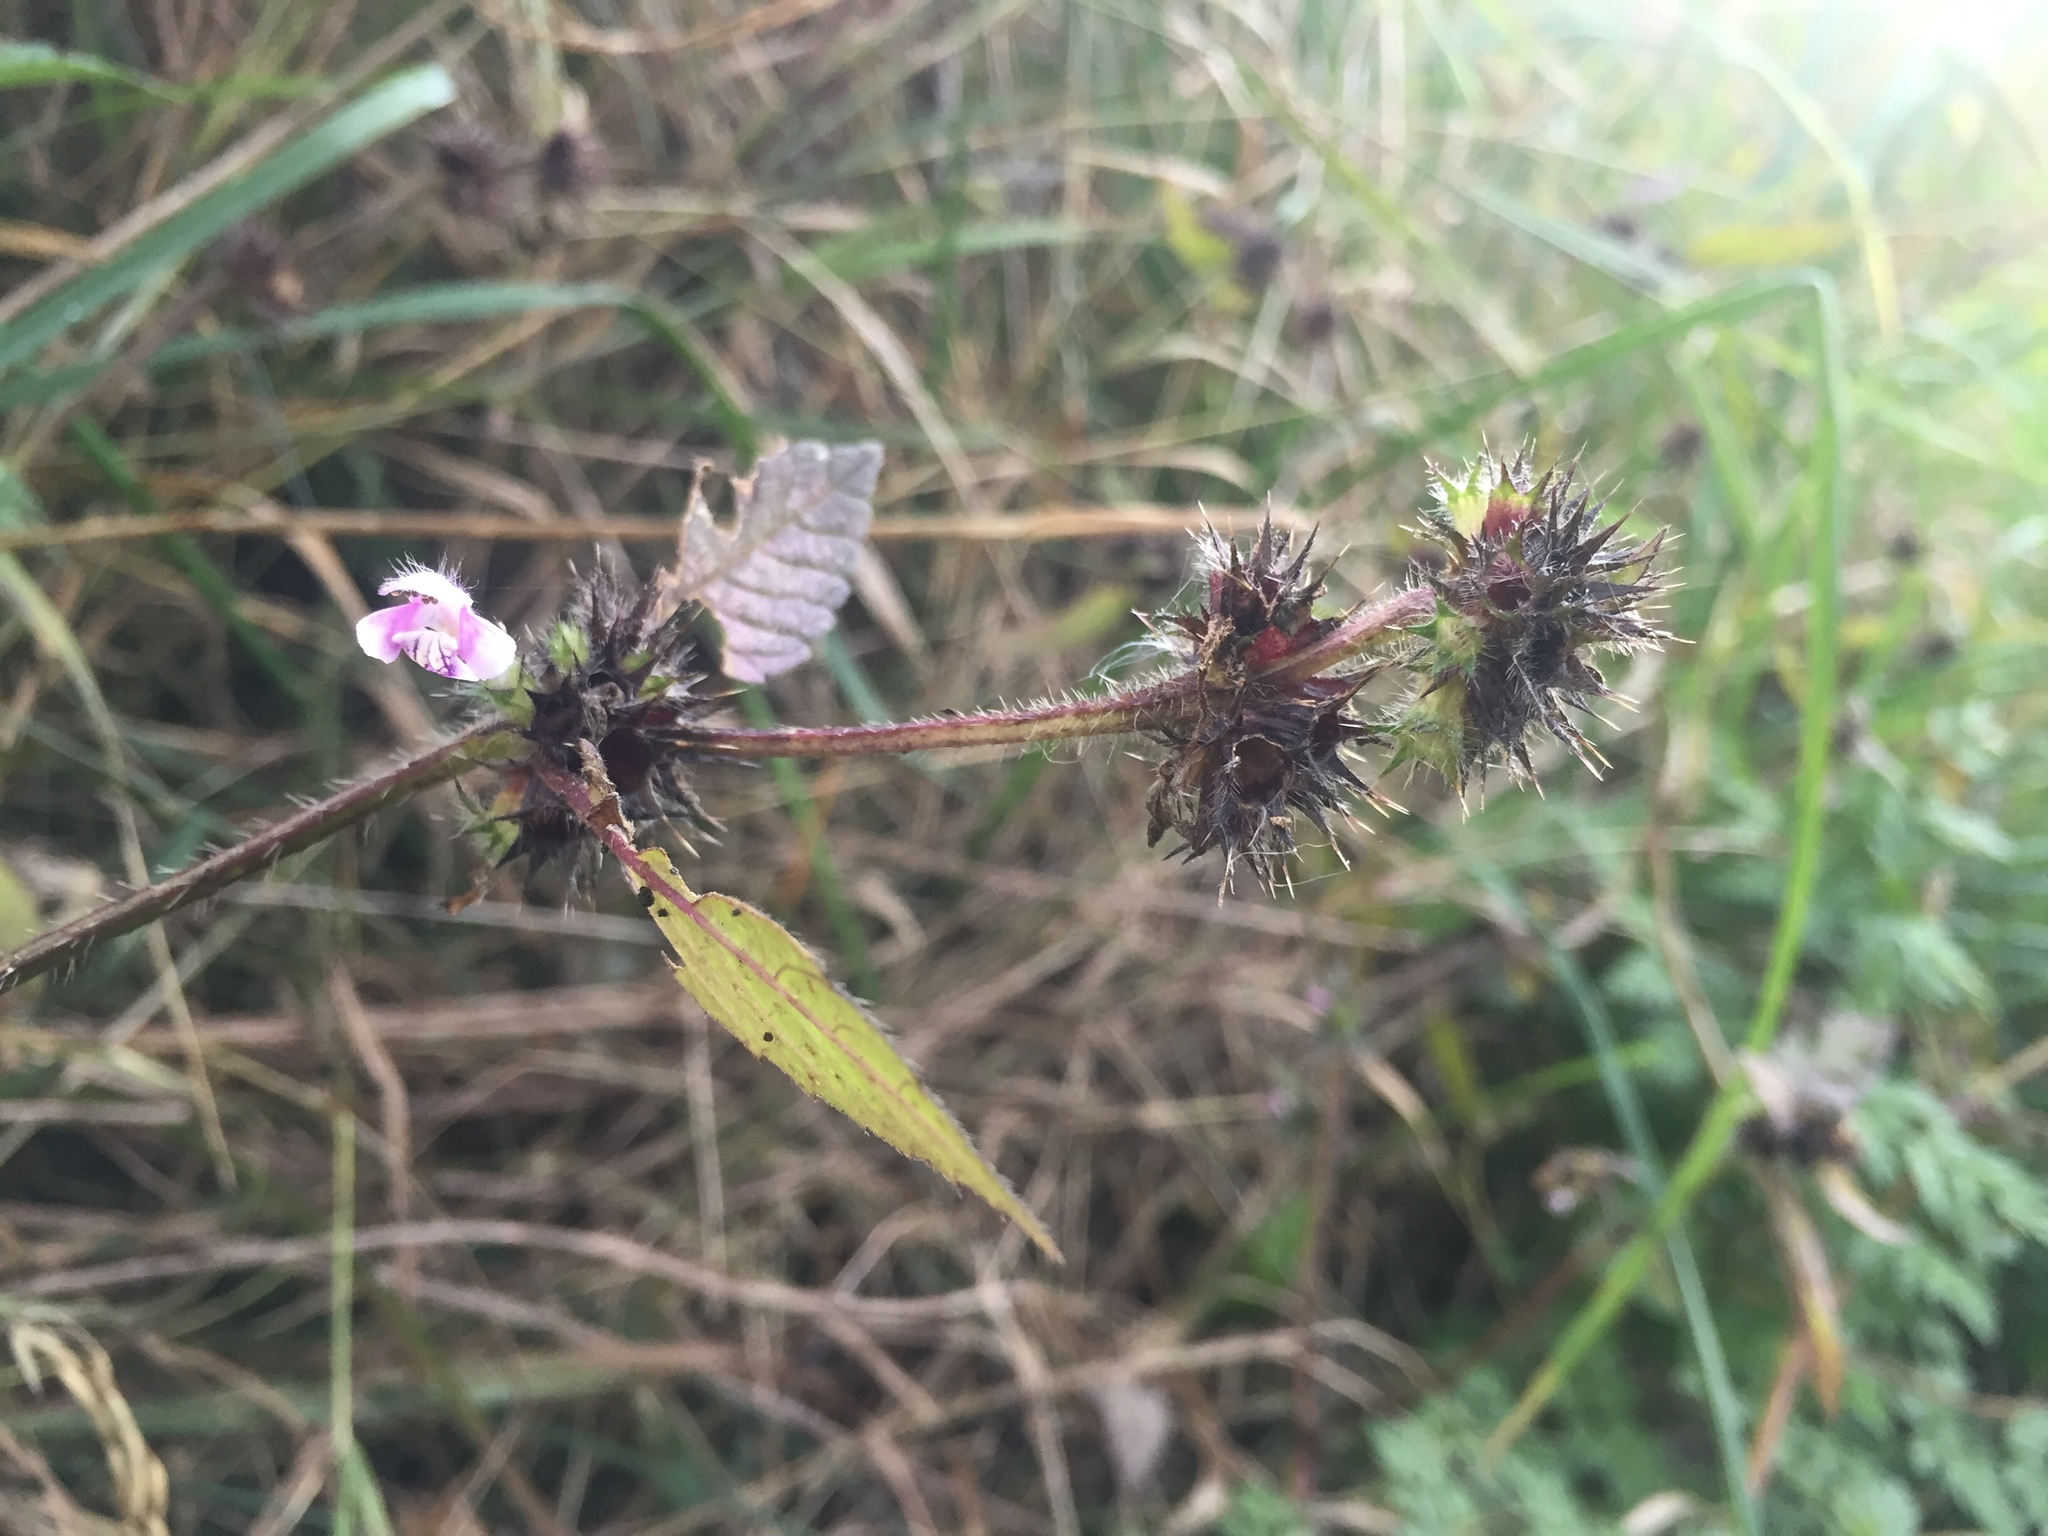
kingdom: Plantae
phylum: Tracheophyta
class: Magnoliopsida
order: Lamiales
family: Lamiaceae
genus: Galeopsis
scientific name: Galeopsis tetrahit
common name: Common hemp-nettle
